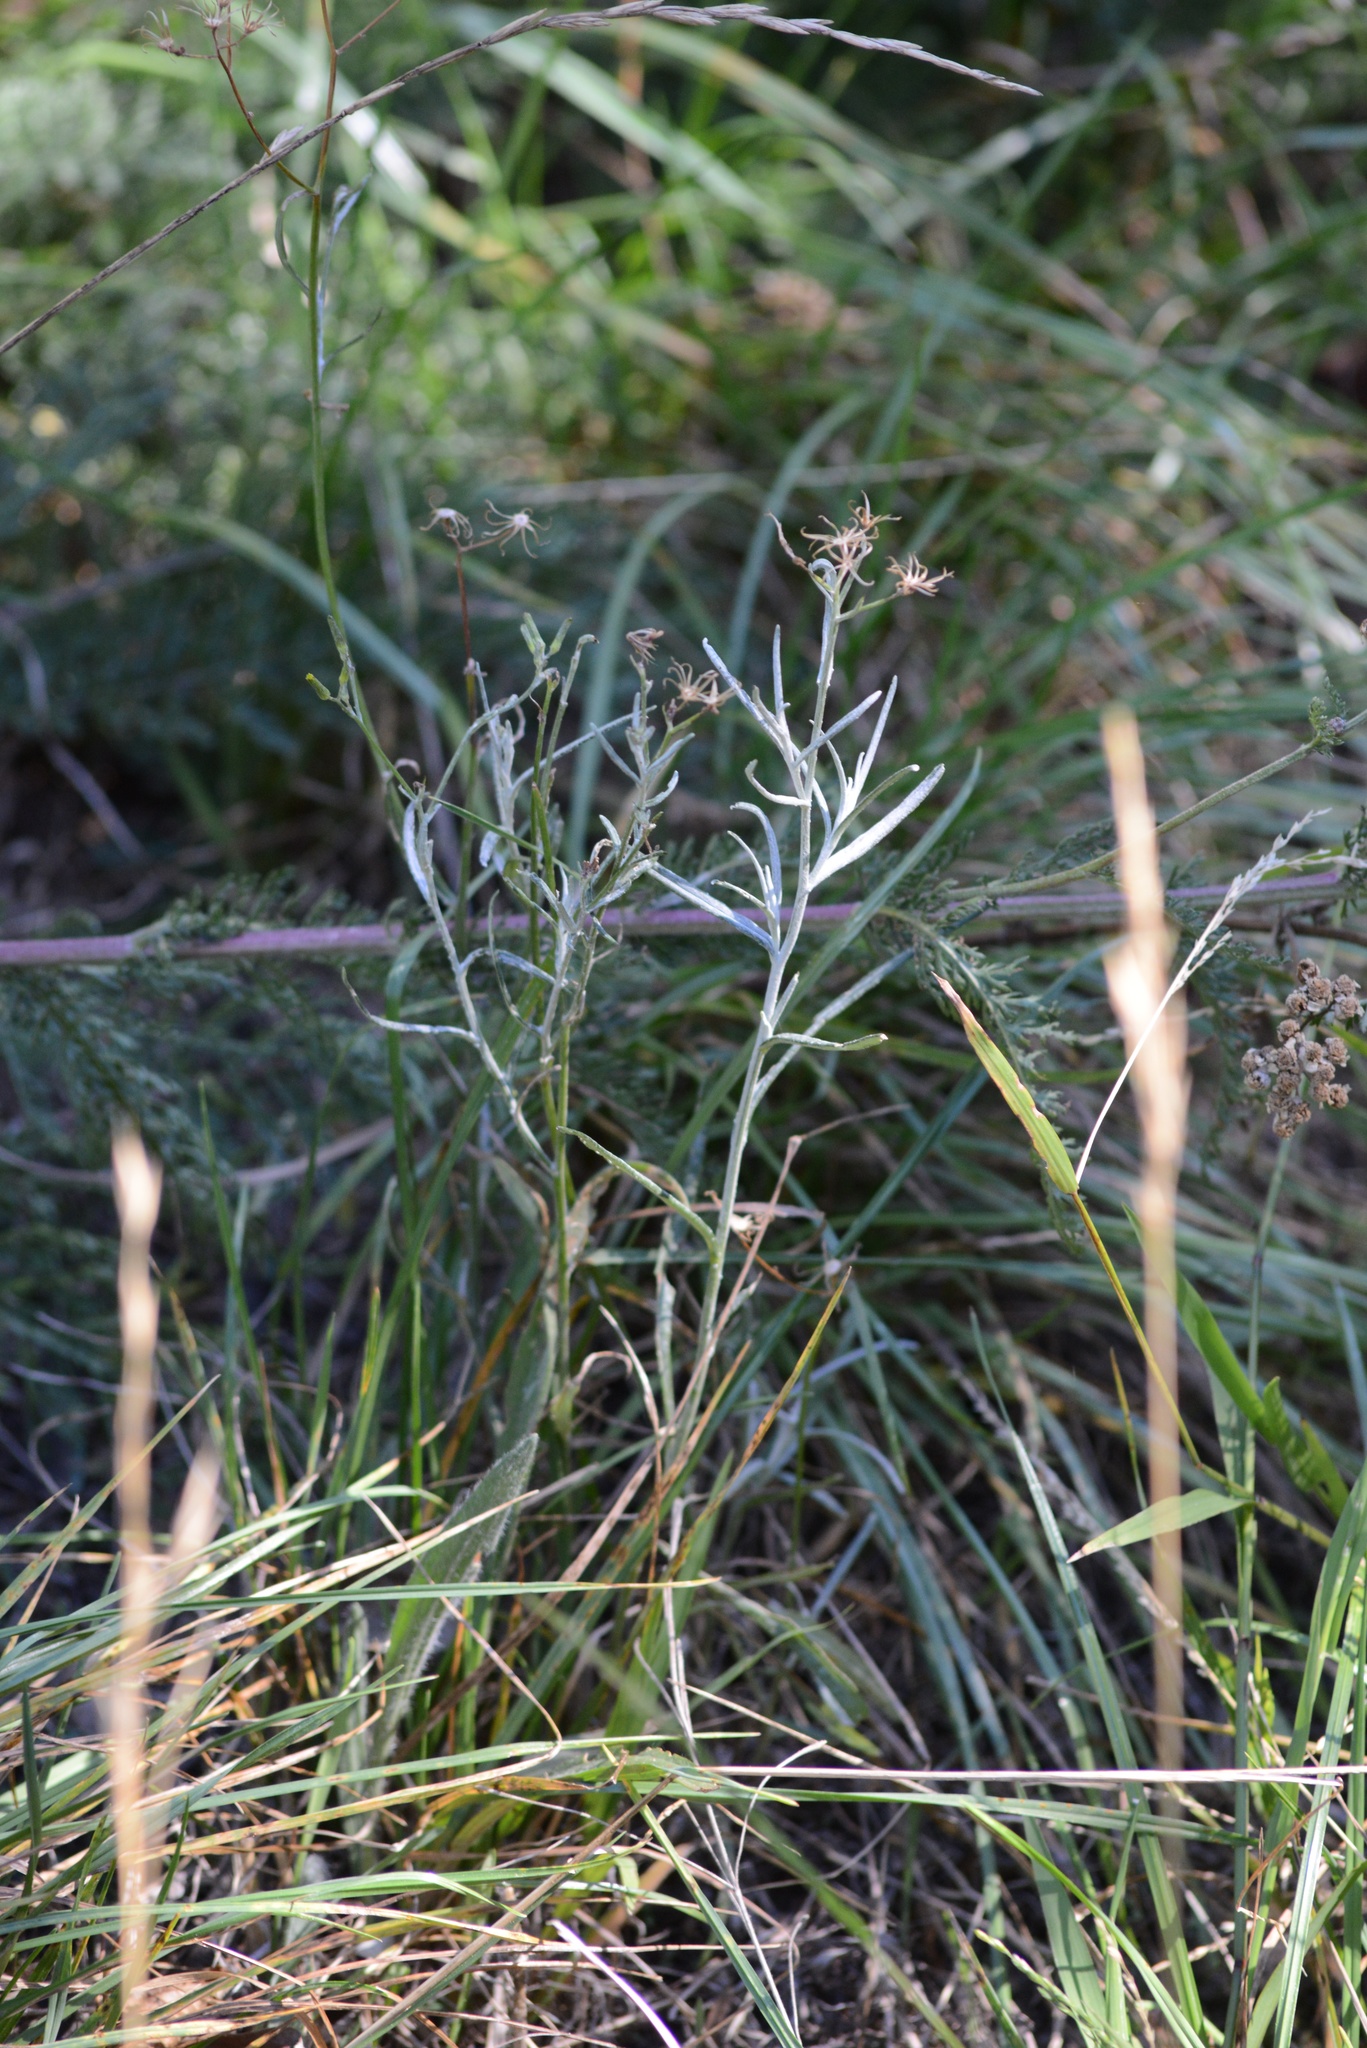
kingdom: Plantae
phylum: Tracheophyta
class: Magnoliopsida
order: Asterales
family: Asteraceae
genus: Senecio
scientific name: Senecio quadridentatus
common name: Cotton fireweed
